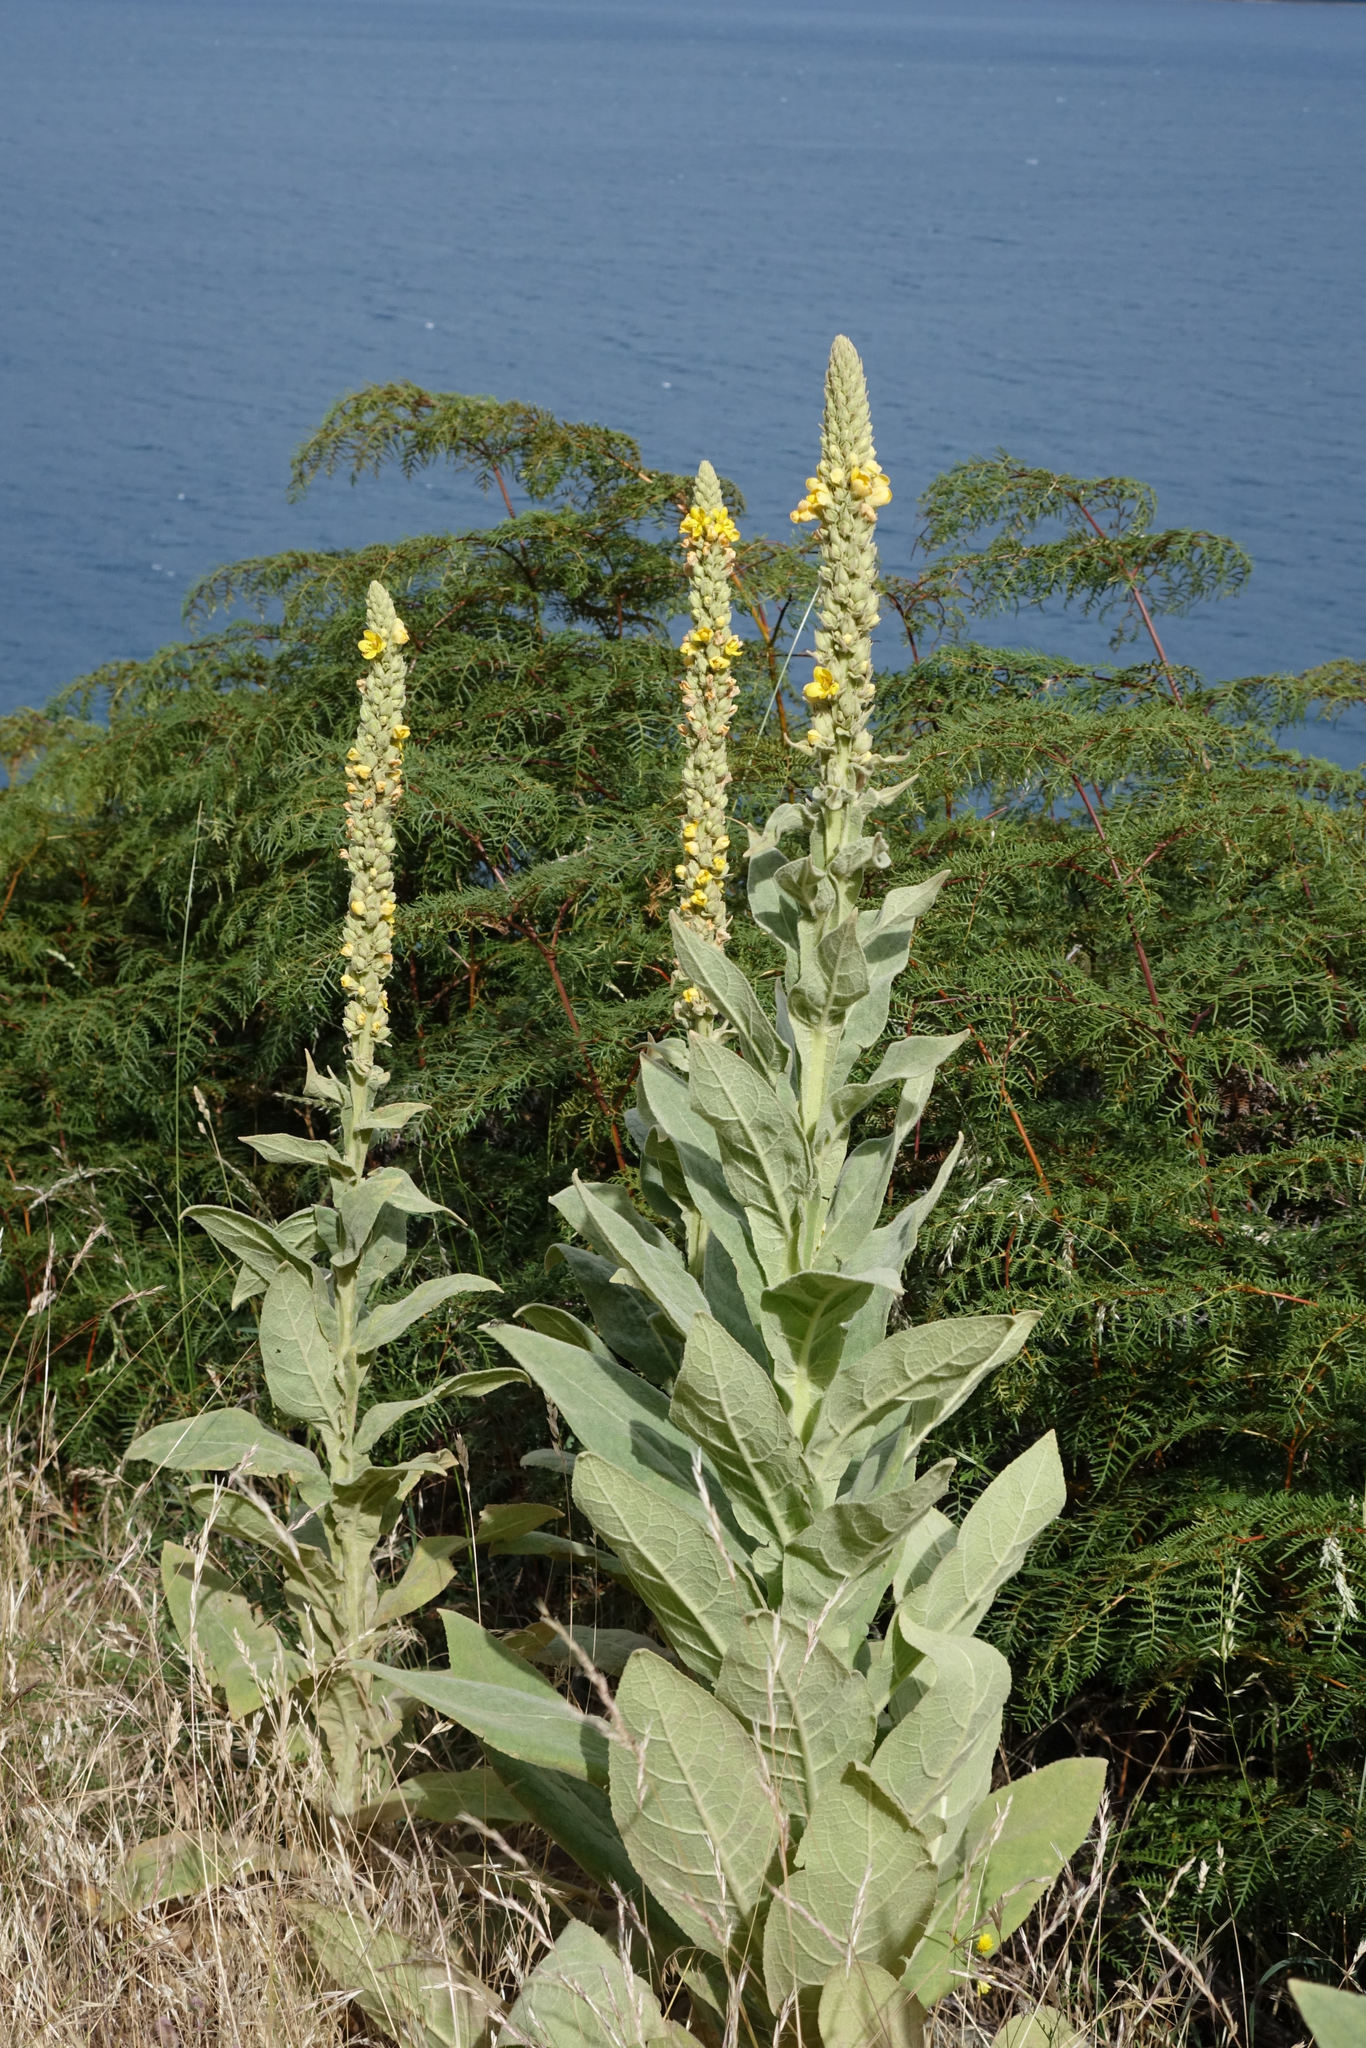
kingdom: Plantae
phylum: Tracheophyta
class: Magnoliopsida
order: Lamiales
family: Scrophulariaceae
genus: Verbascum
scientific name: Verbascum thapsus
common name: Common mullein
